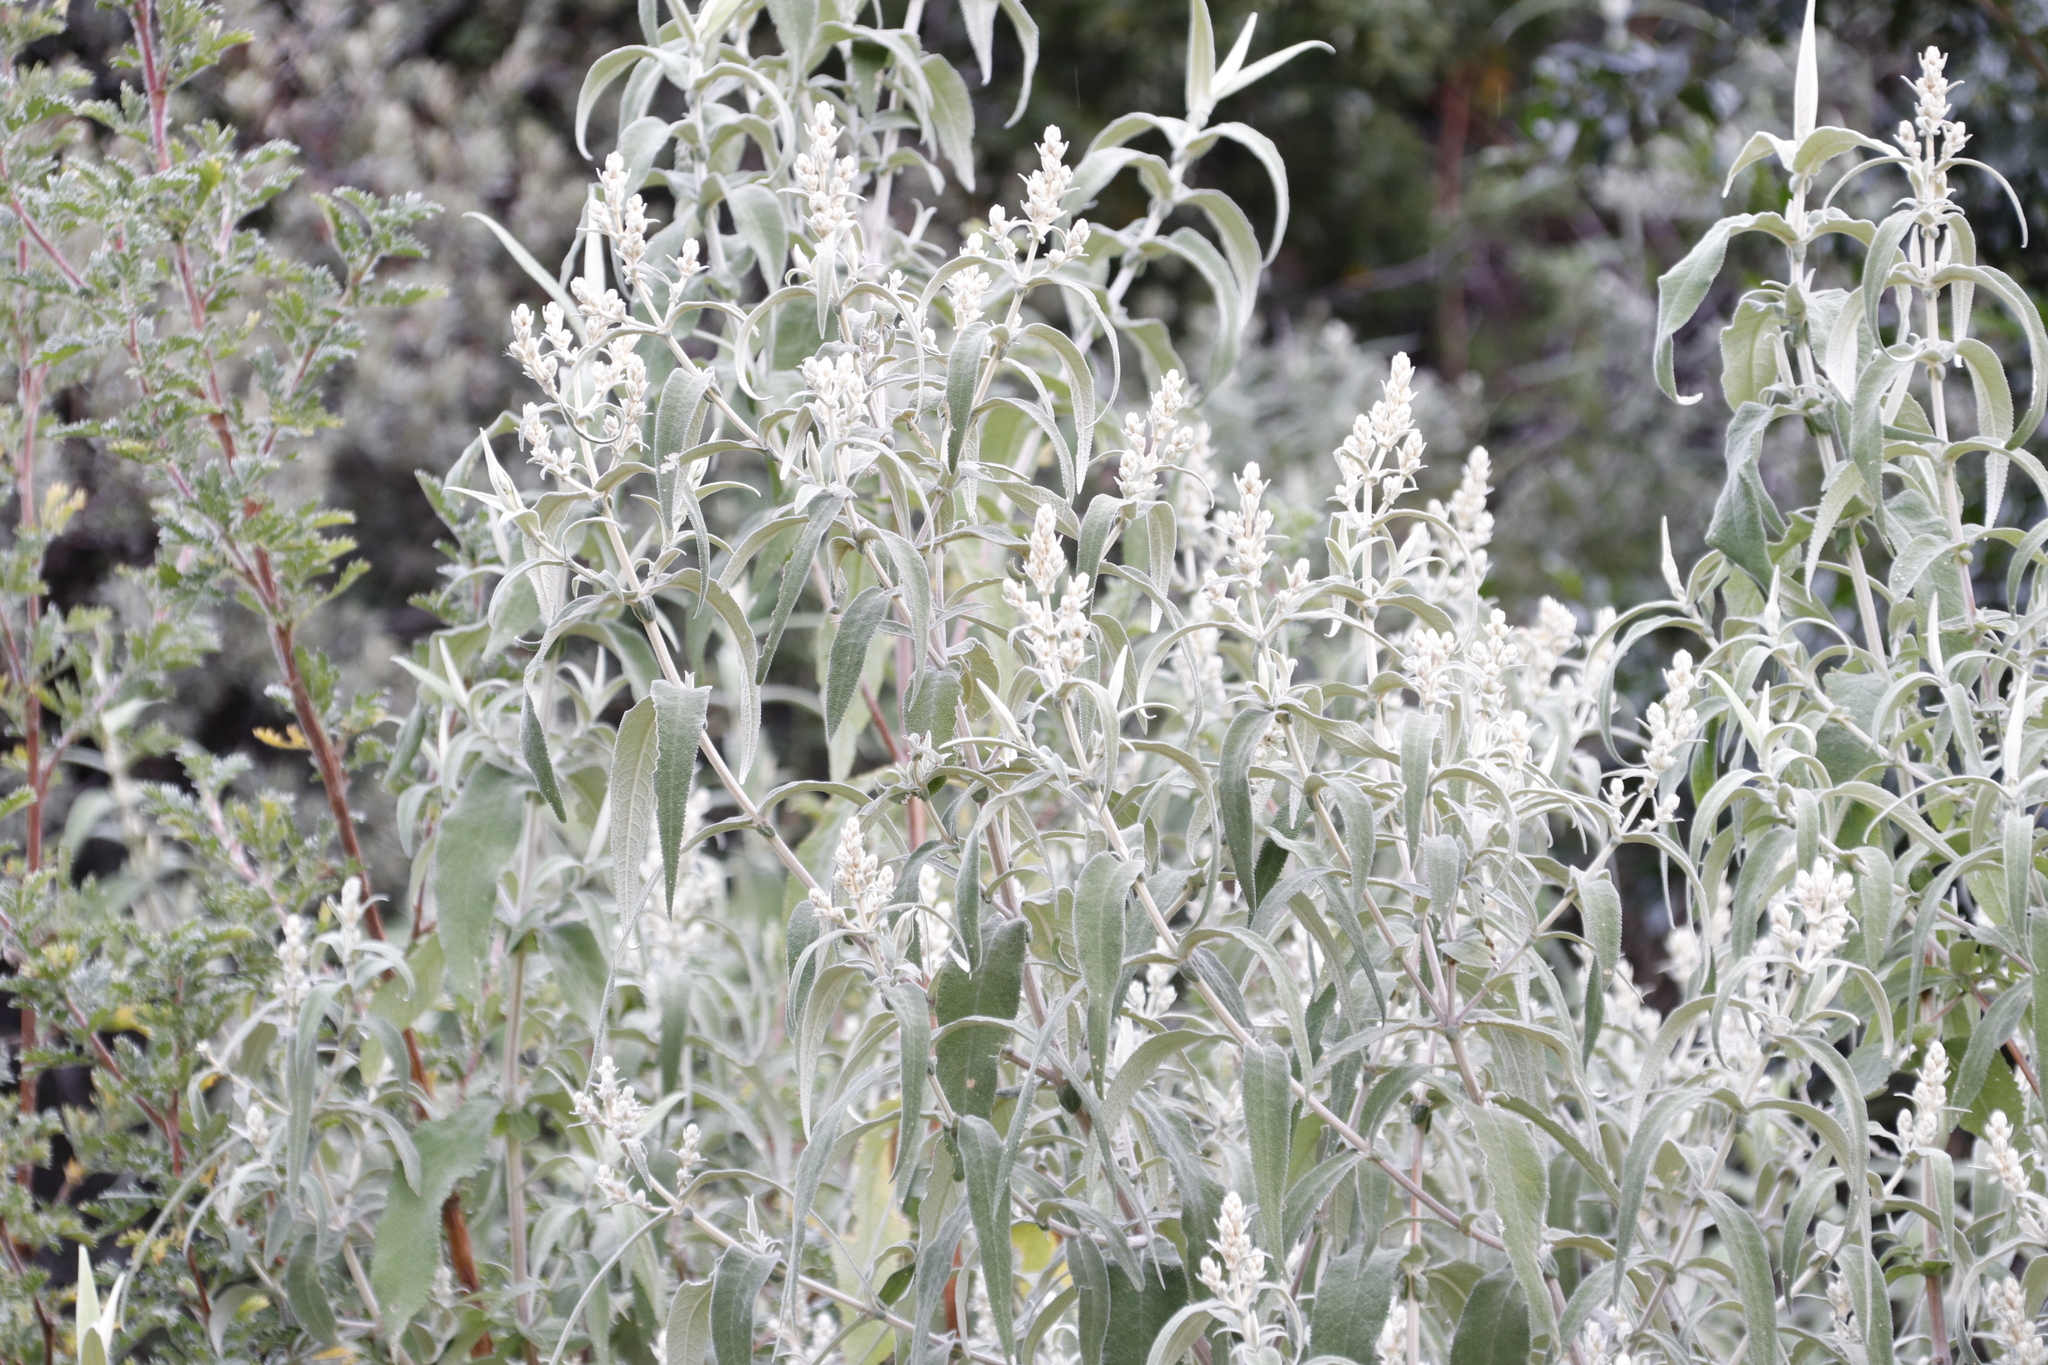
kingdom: Plantae
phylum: Tracheophyta
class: Magnoliopsida
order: Lamiales
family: Scrophulariaceae
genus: Buddleja
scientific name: Buddleja salviifolia
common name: Sagewood
